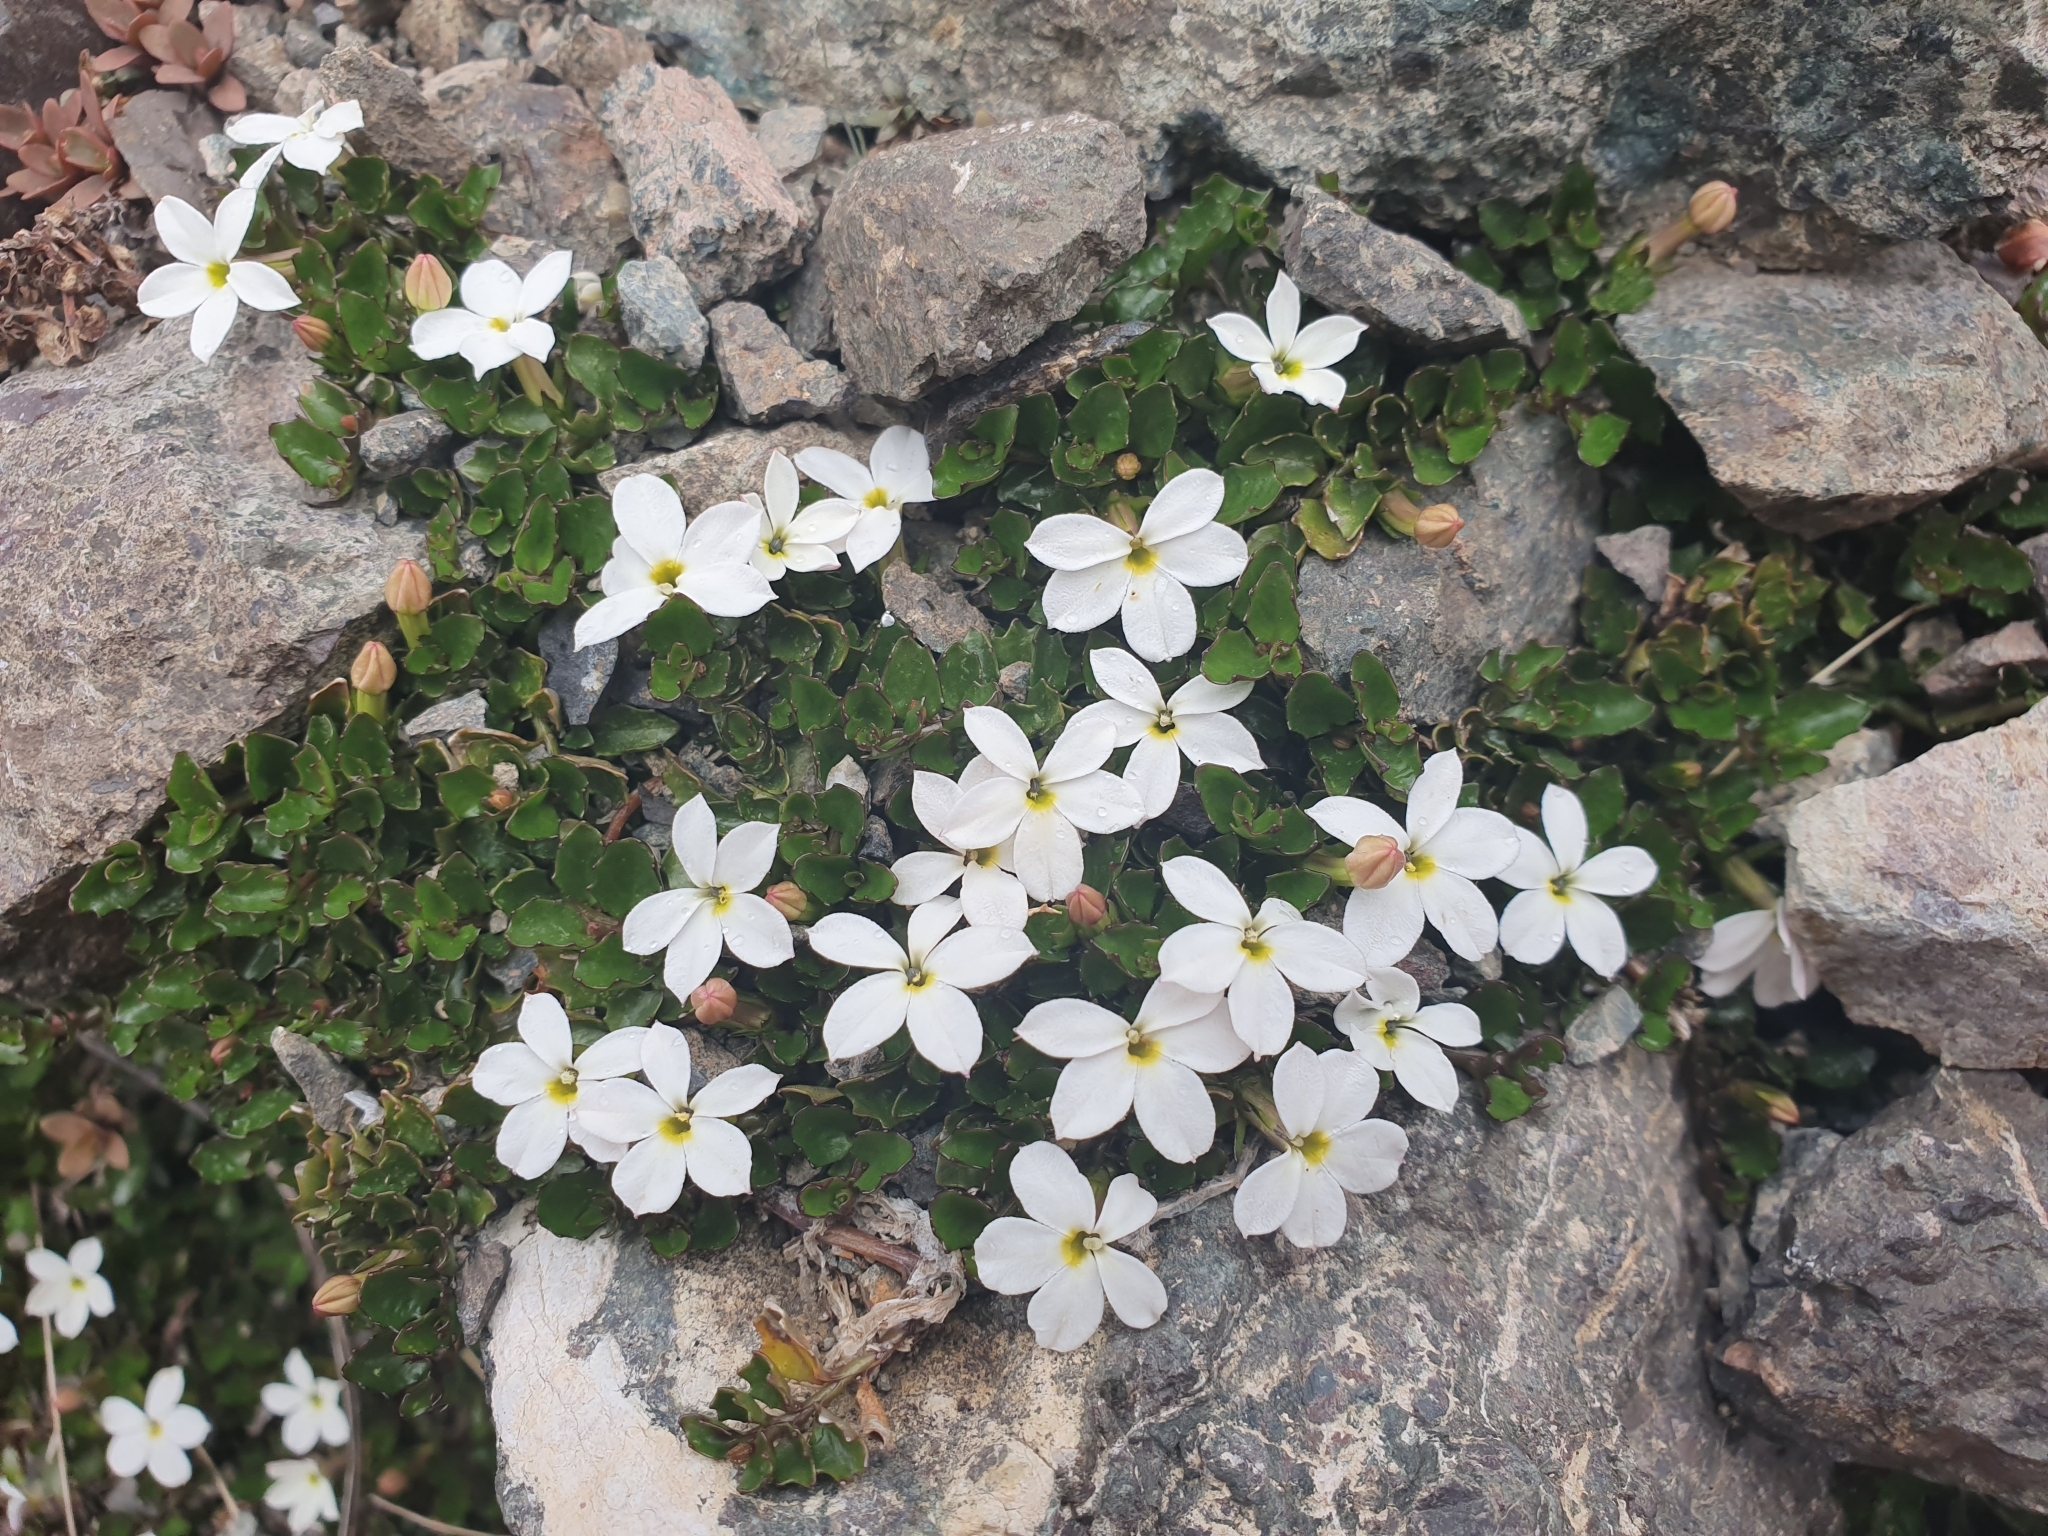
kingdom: Plantae
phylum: Tracheophyta
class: Magnoliopsida
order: Asterales
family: Campanulaceae
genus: Lobelia
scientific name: Lobelia glaberrima
